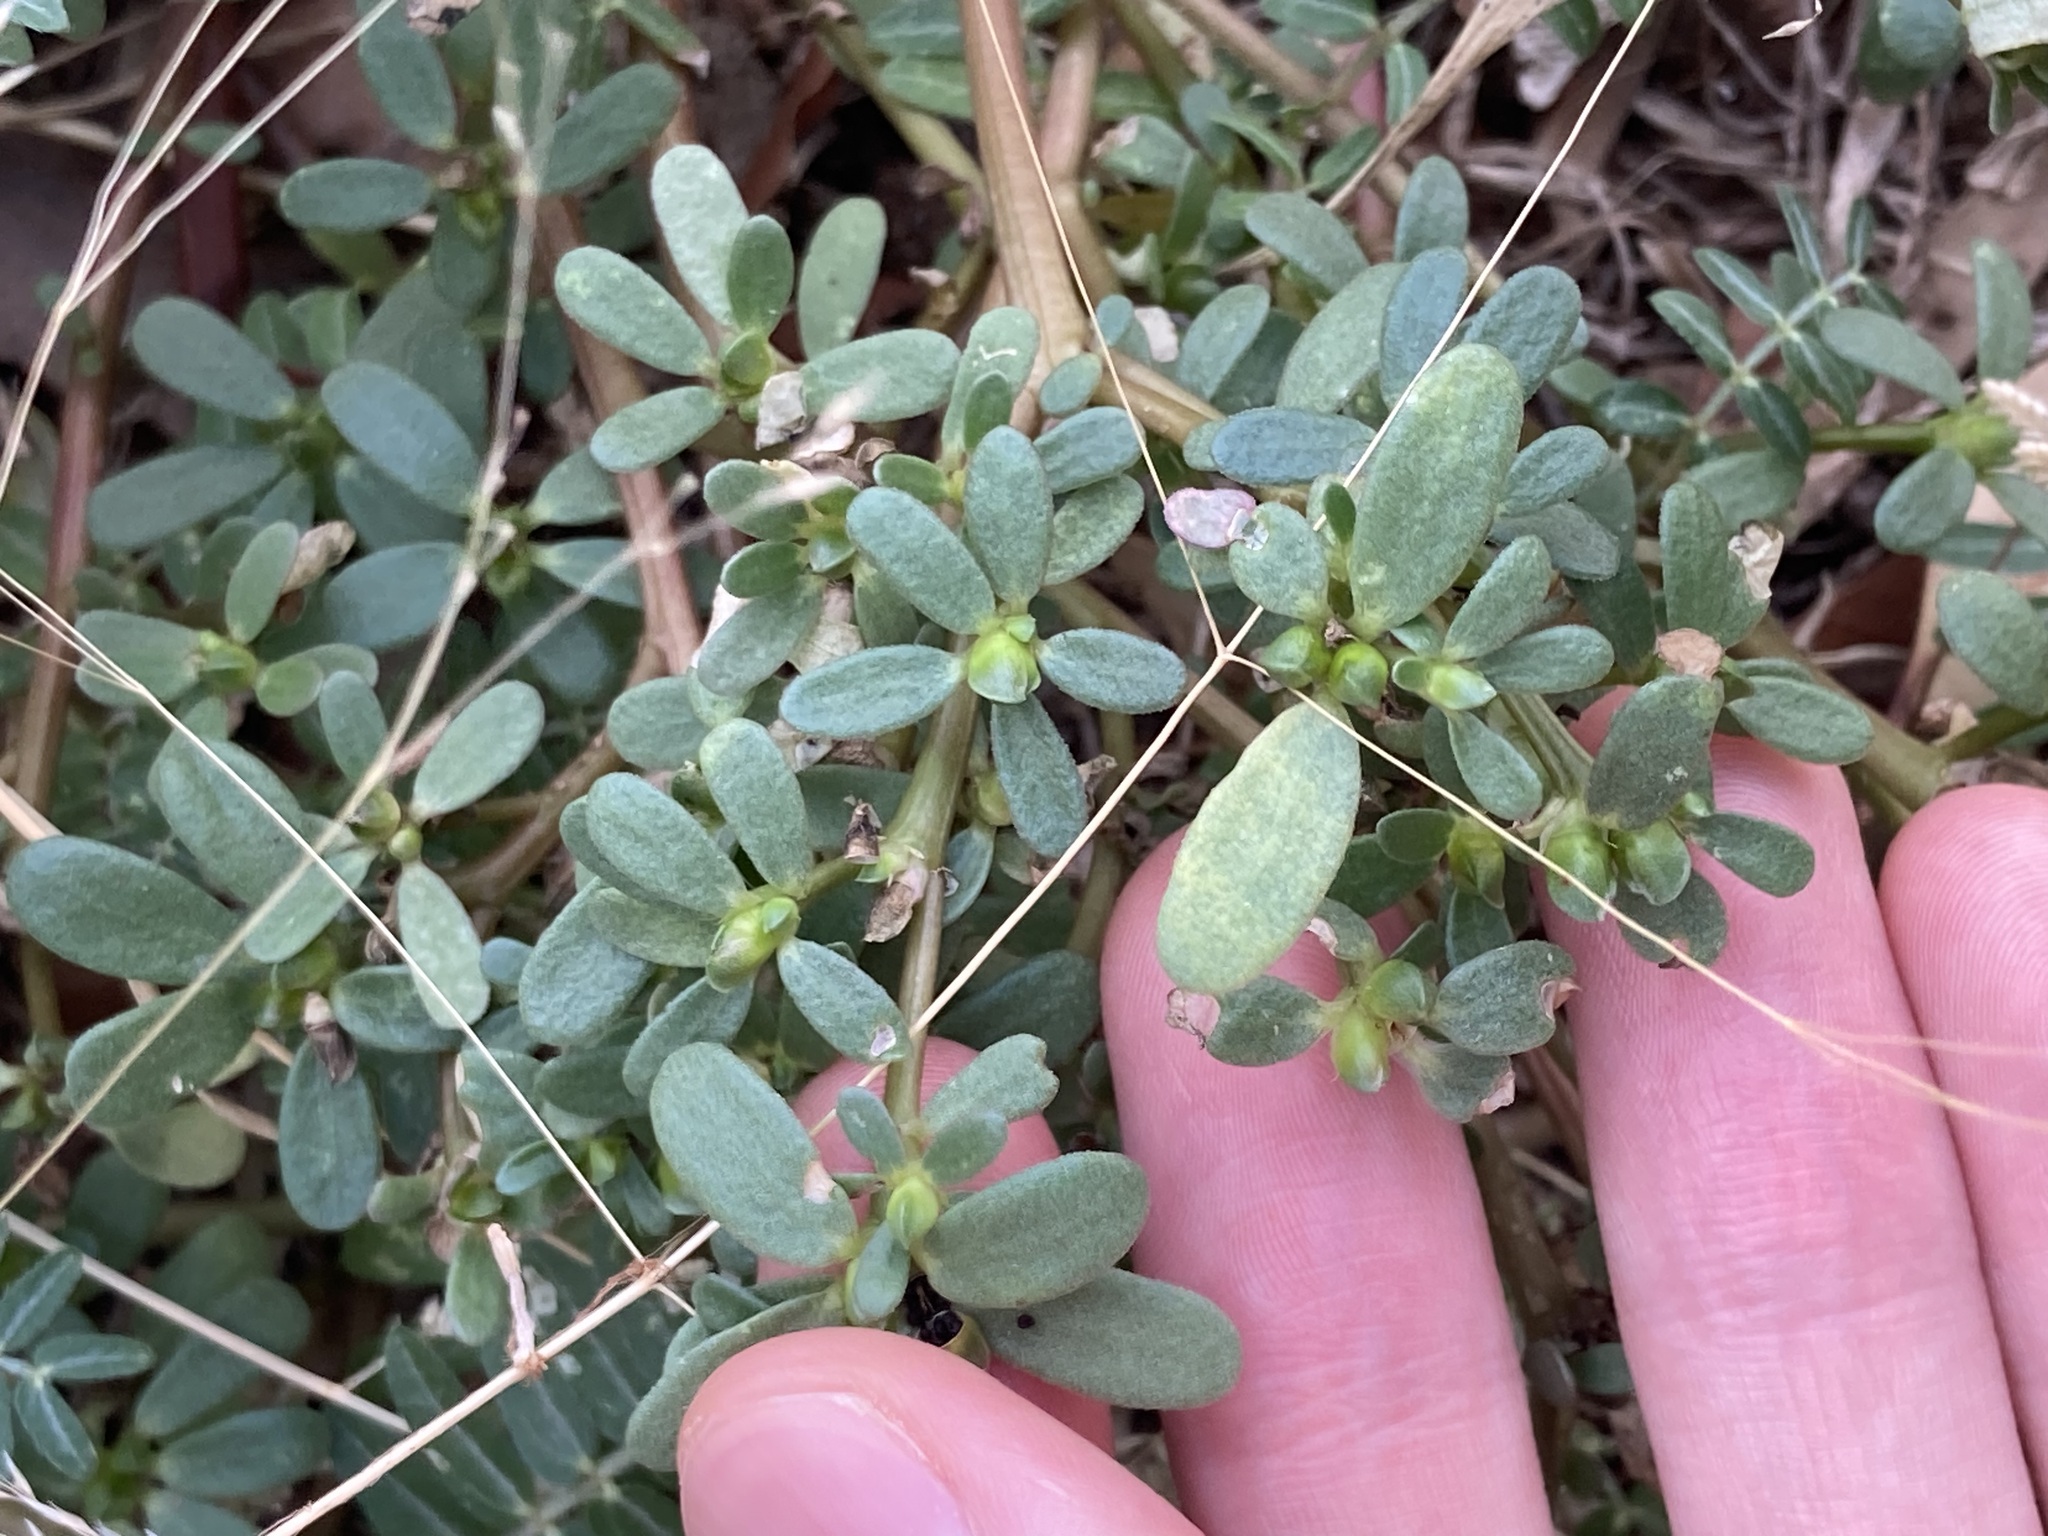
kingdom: Plantae
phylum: Tracheophyta
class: Magnoliopsida
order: Caryophyllales
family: Portulacaceae
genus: Portulaca
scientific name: Portulaca oleracea
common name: Common purslane
